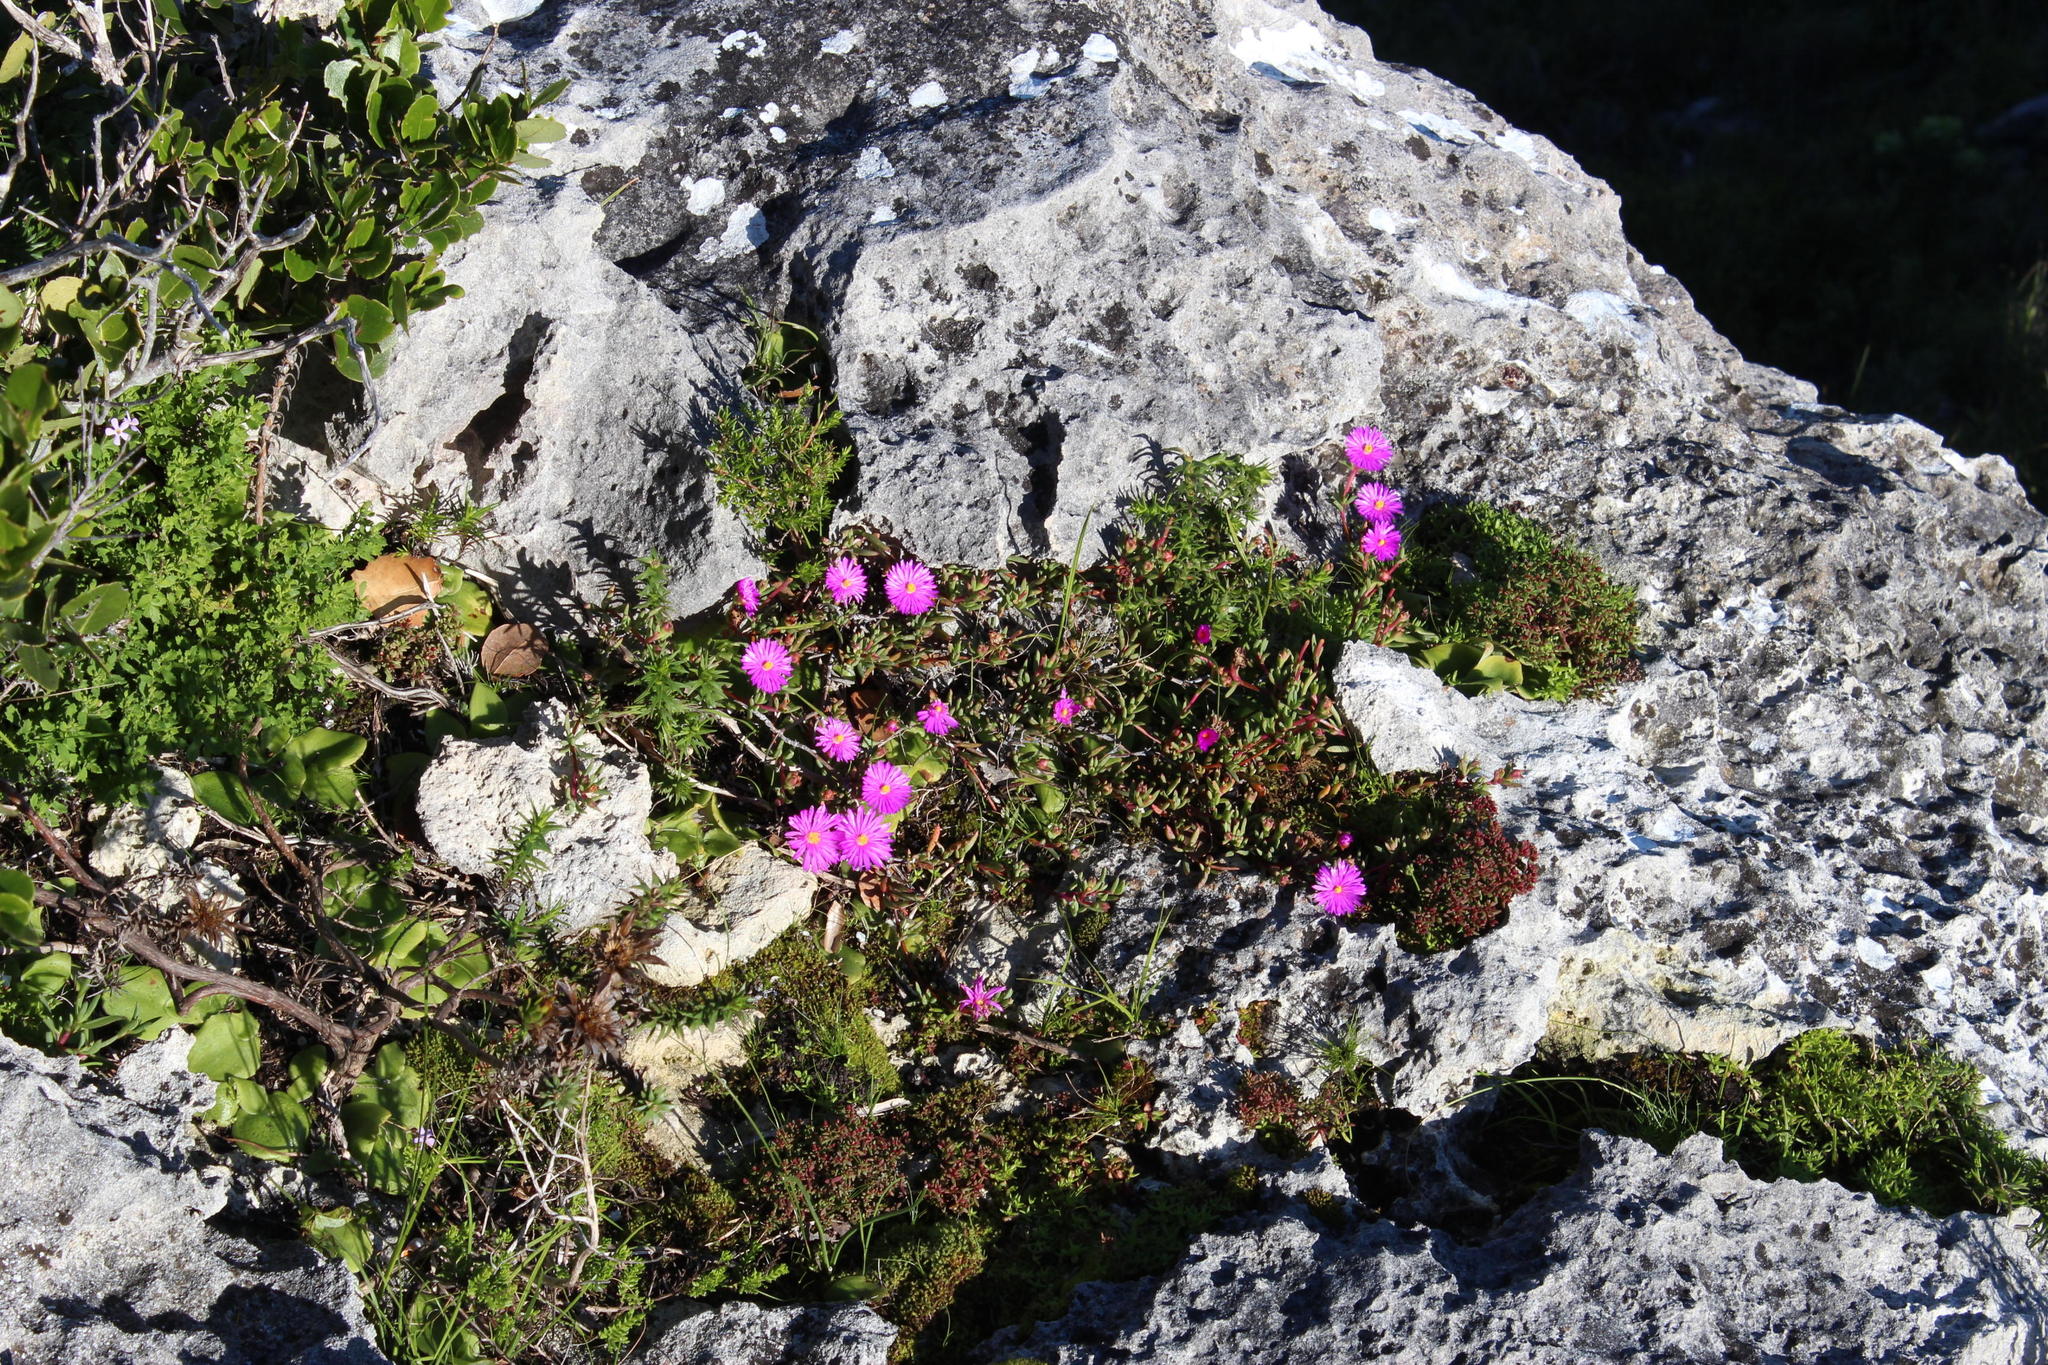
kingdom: Plantae
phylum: Tracheophyta
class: Magnoliopsida
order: Caryophyllales
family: Aizoaceae
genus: Lampranthus
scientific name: Lampranthus ceriseus
